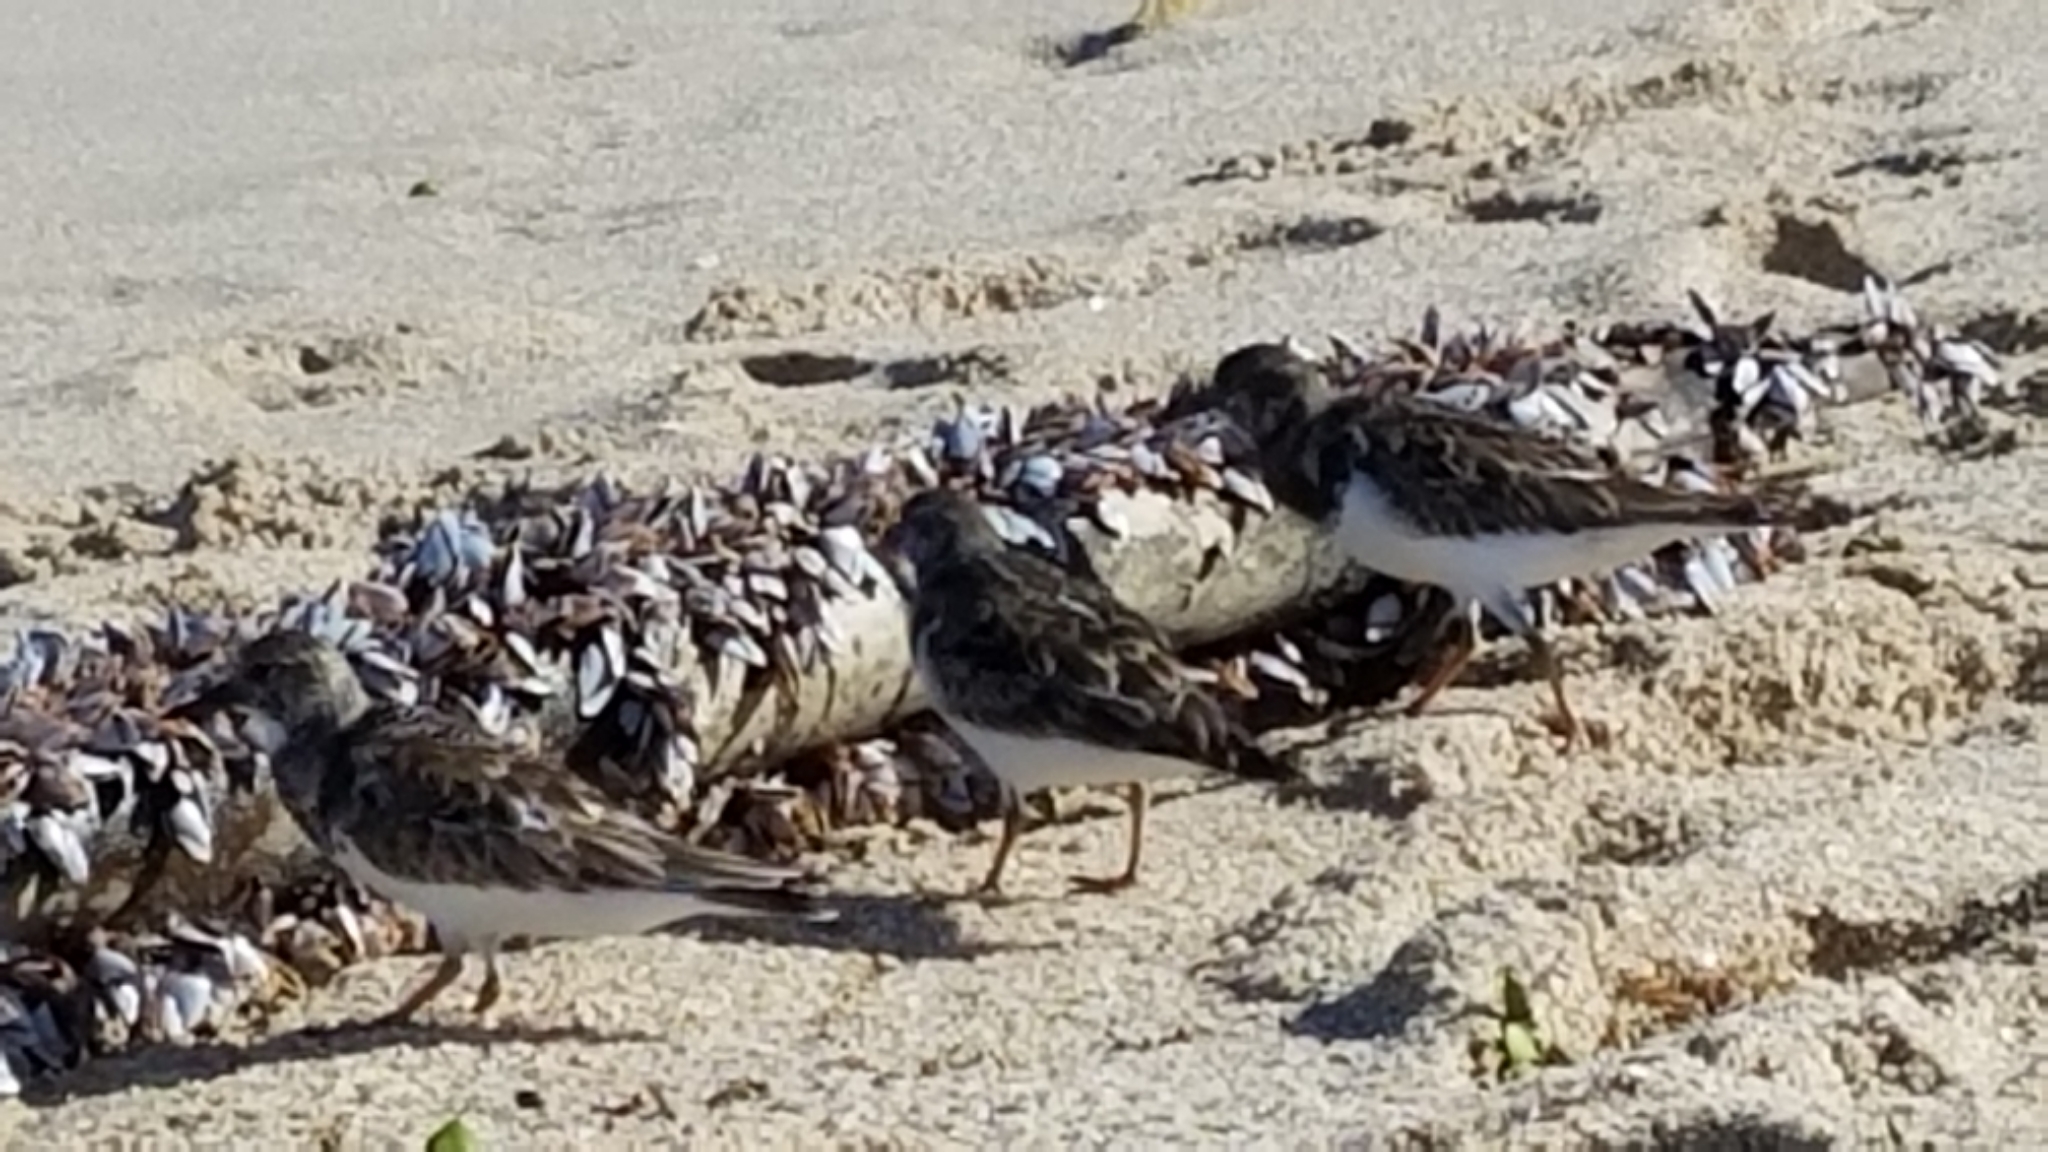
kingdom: Animalia
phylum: Chordata
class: Aves
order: Charadriiformes
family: Scolopacidae
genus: Arenaria
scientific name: Arenaria interpres
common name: Ruddy turnstone
